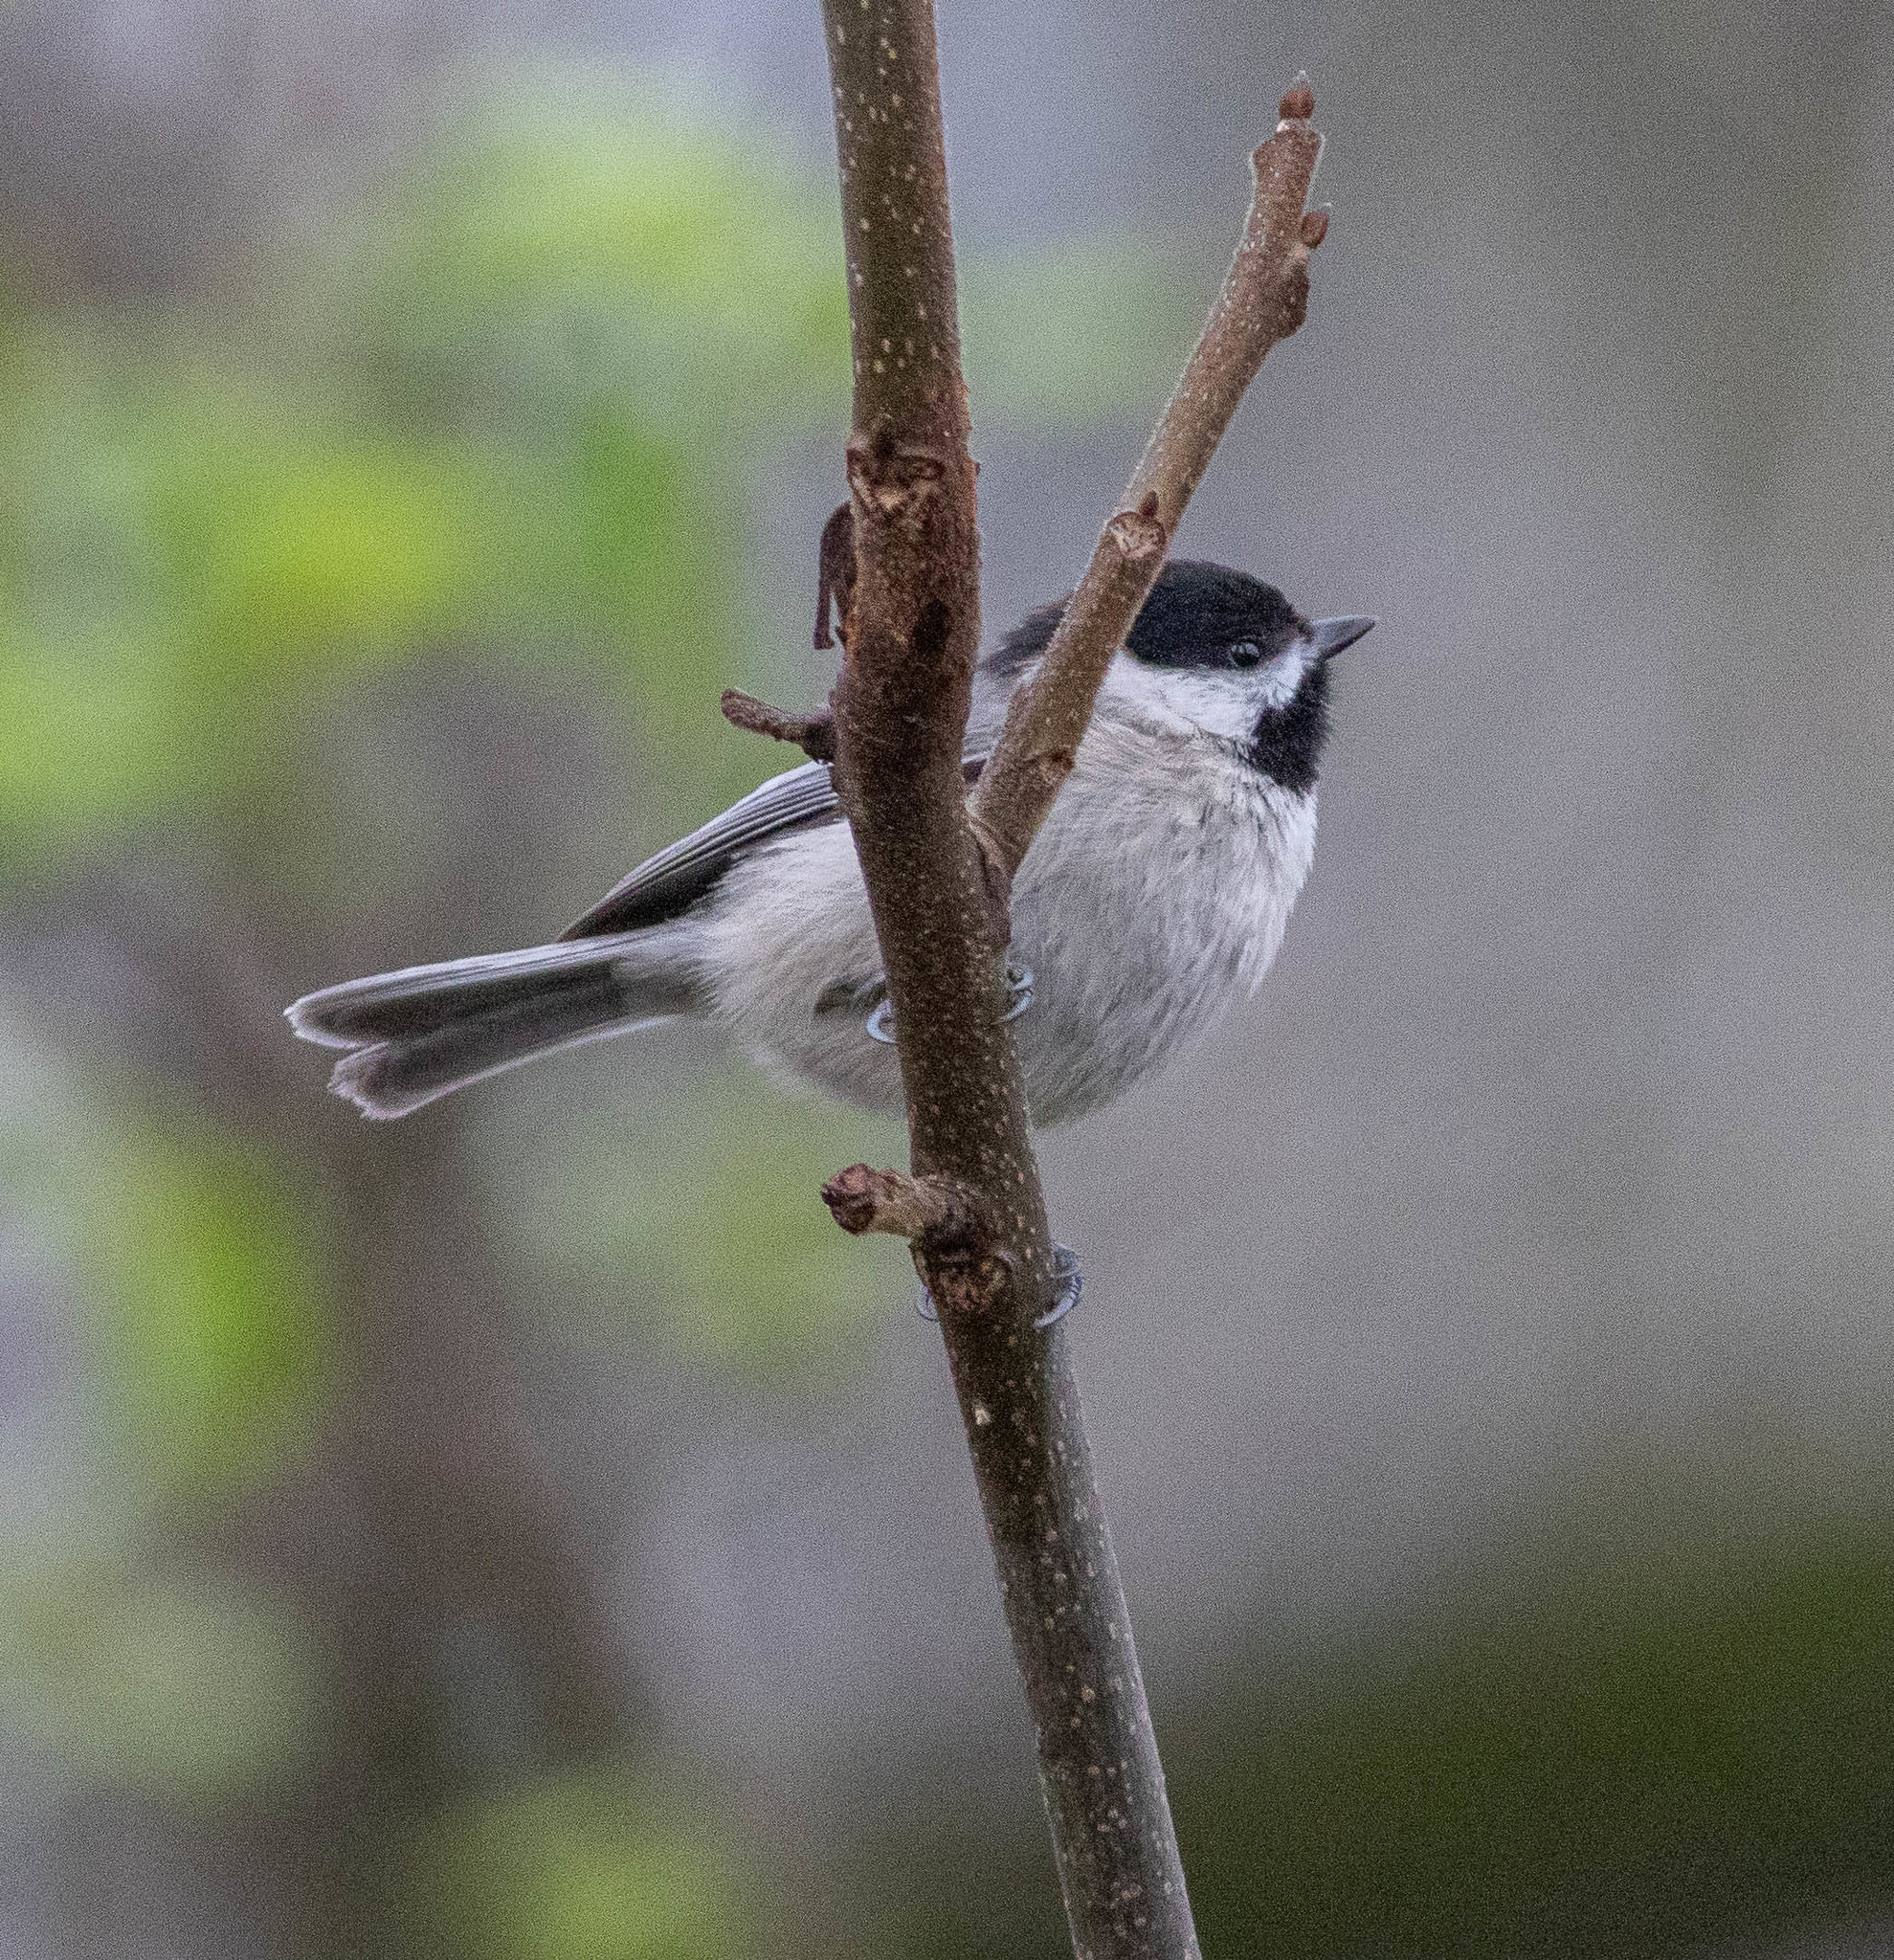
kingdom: Animalia
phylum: Chordata
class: Aves
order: Passeriformes
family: Paridae
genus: Poecile
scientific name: Poecile carolinensis
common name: Carolina chickadee
